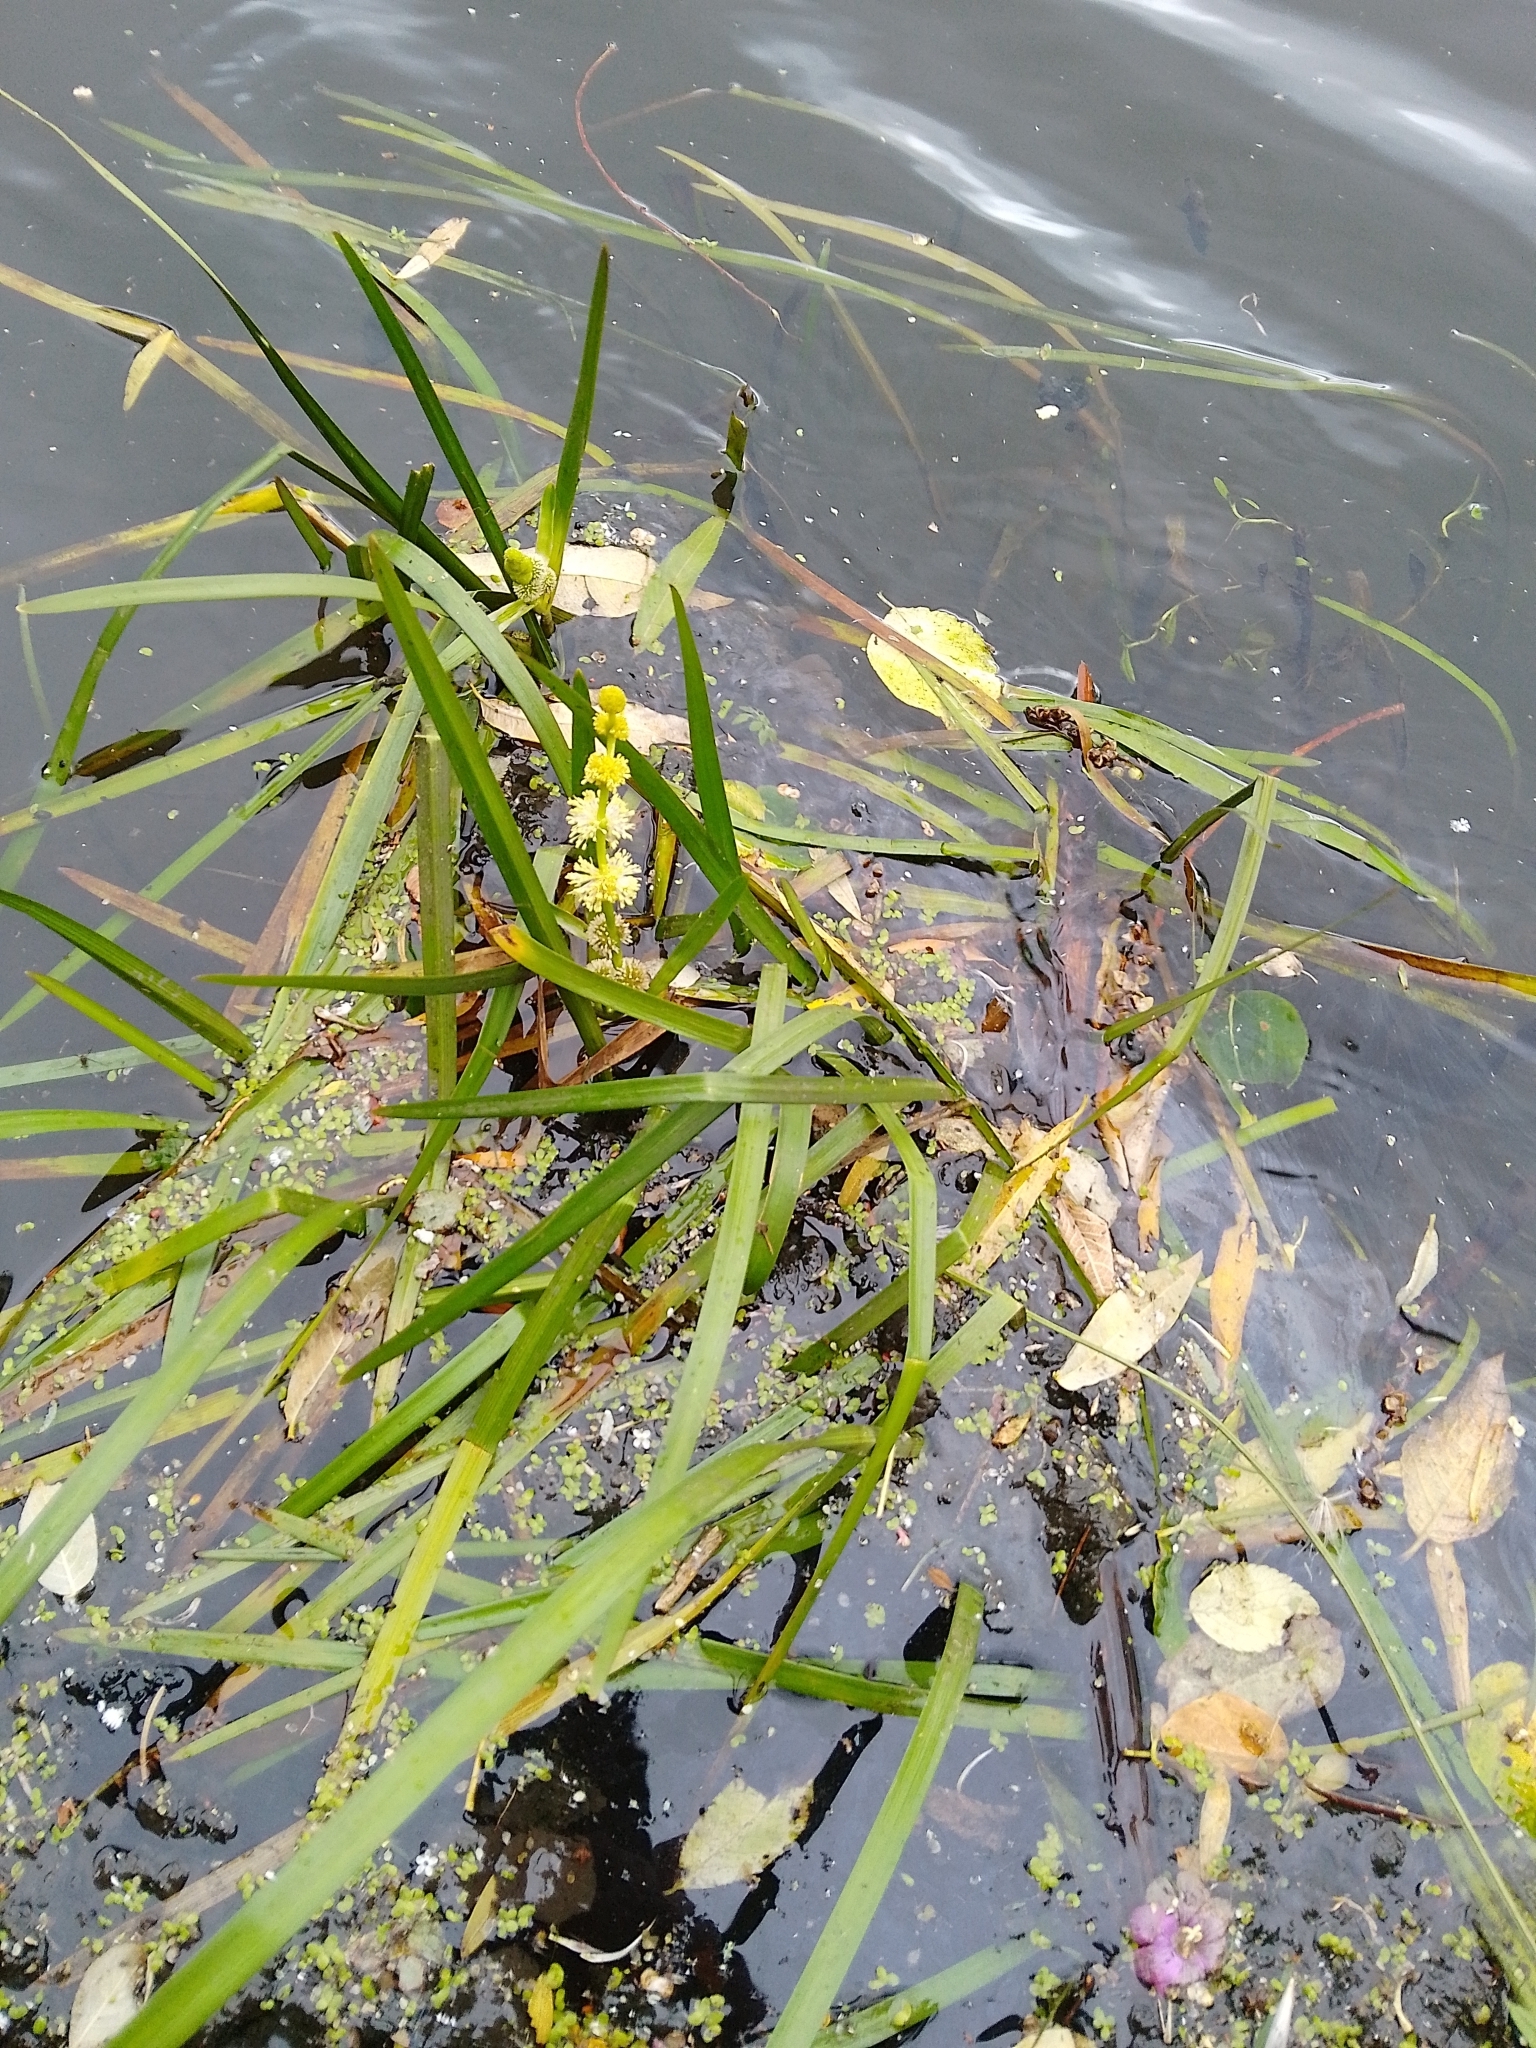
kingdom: Plantae
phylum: Tracheophyta
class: Liliopsida
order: Poales
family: Typhaceae
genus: Sparganium
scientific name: Sparganium emersum
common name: Unbranched bur-reed
